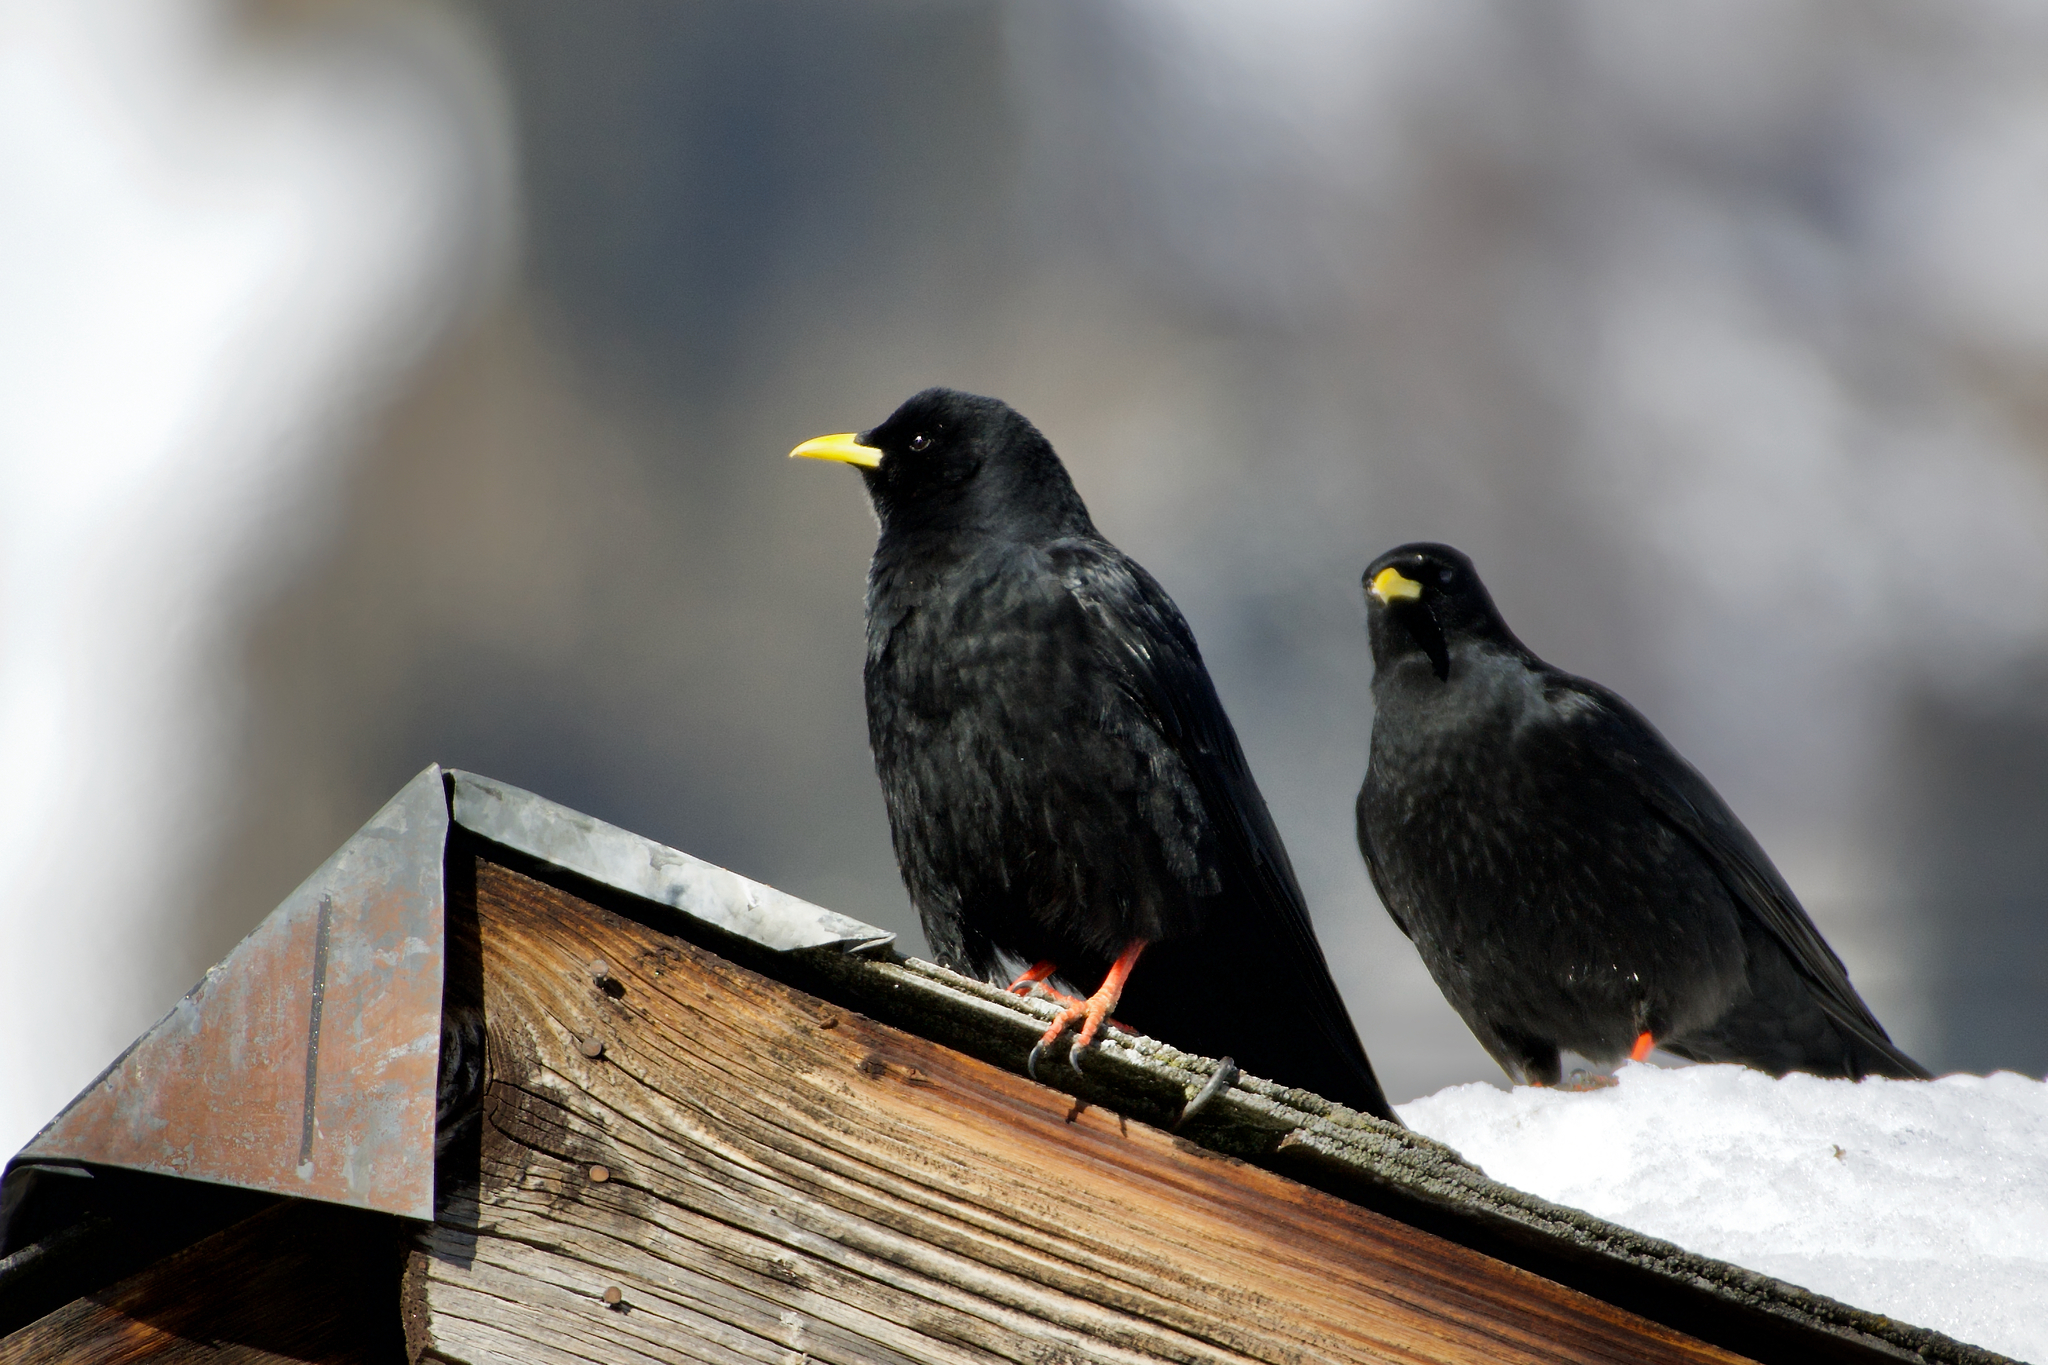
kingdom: Animalia
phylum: Chordata
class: Aves
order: Passeriformes
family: Corvidae
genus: Pyrrhocorax
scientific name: Pyrrhocorax graculus
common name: Alpine chough
